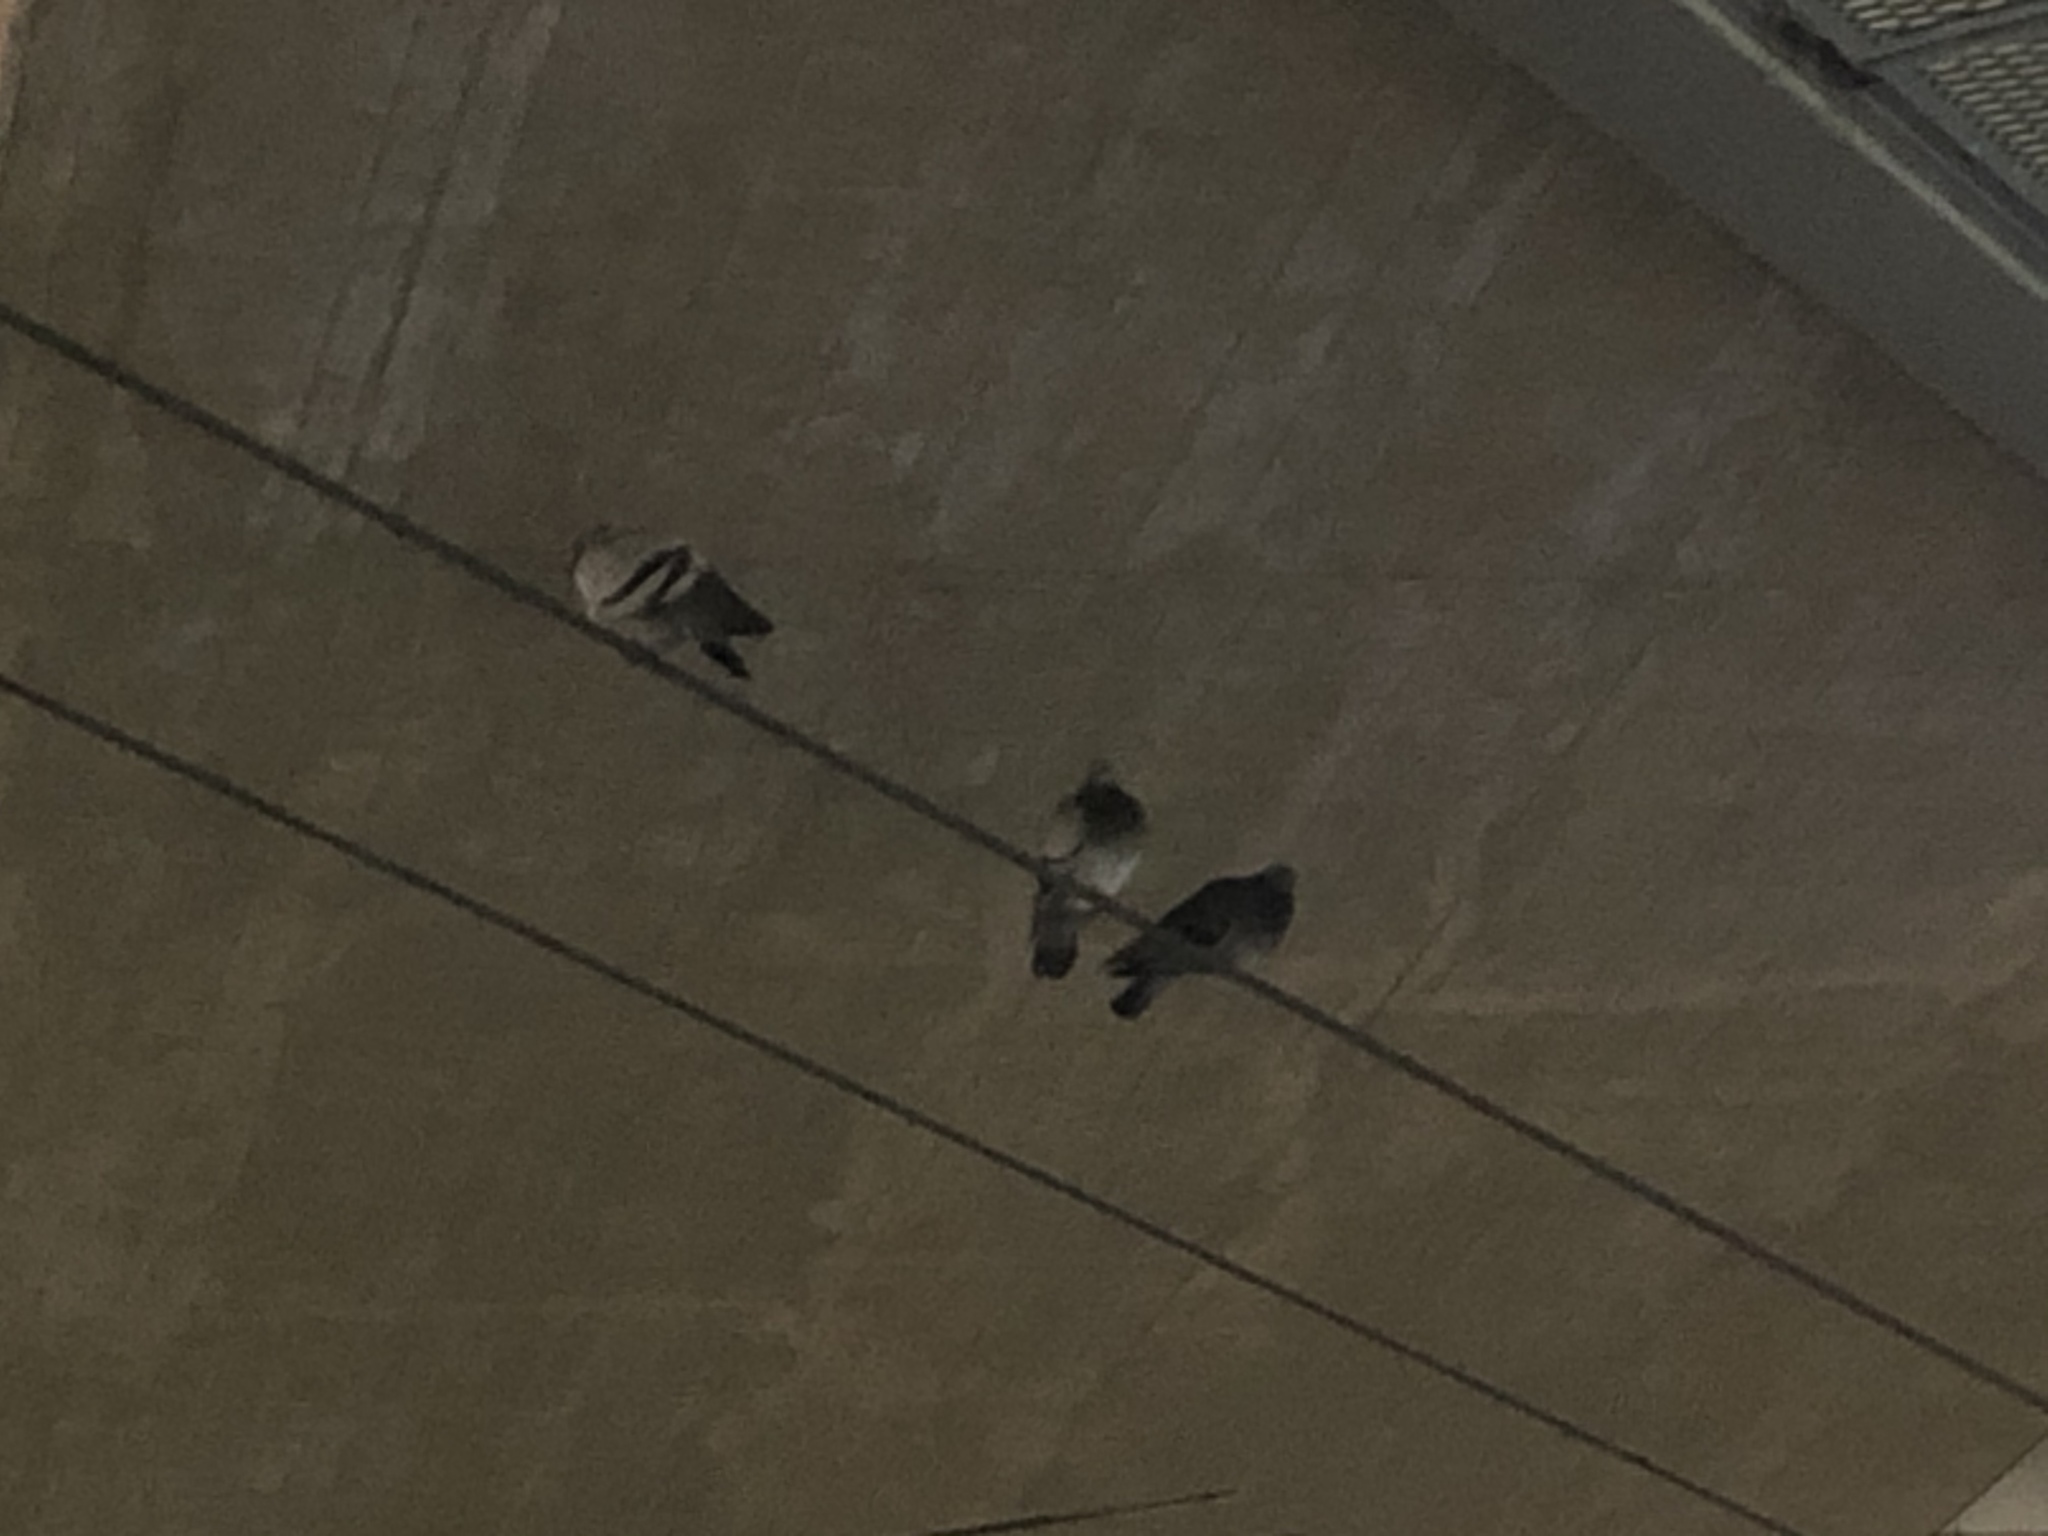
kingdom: Animalia
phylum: Chordata
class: Aves
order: Columbiformes
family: Columbidae
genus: Columba
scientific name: Columba livia
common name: Rock pigeon
